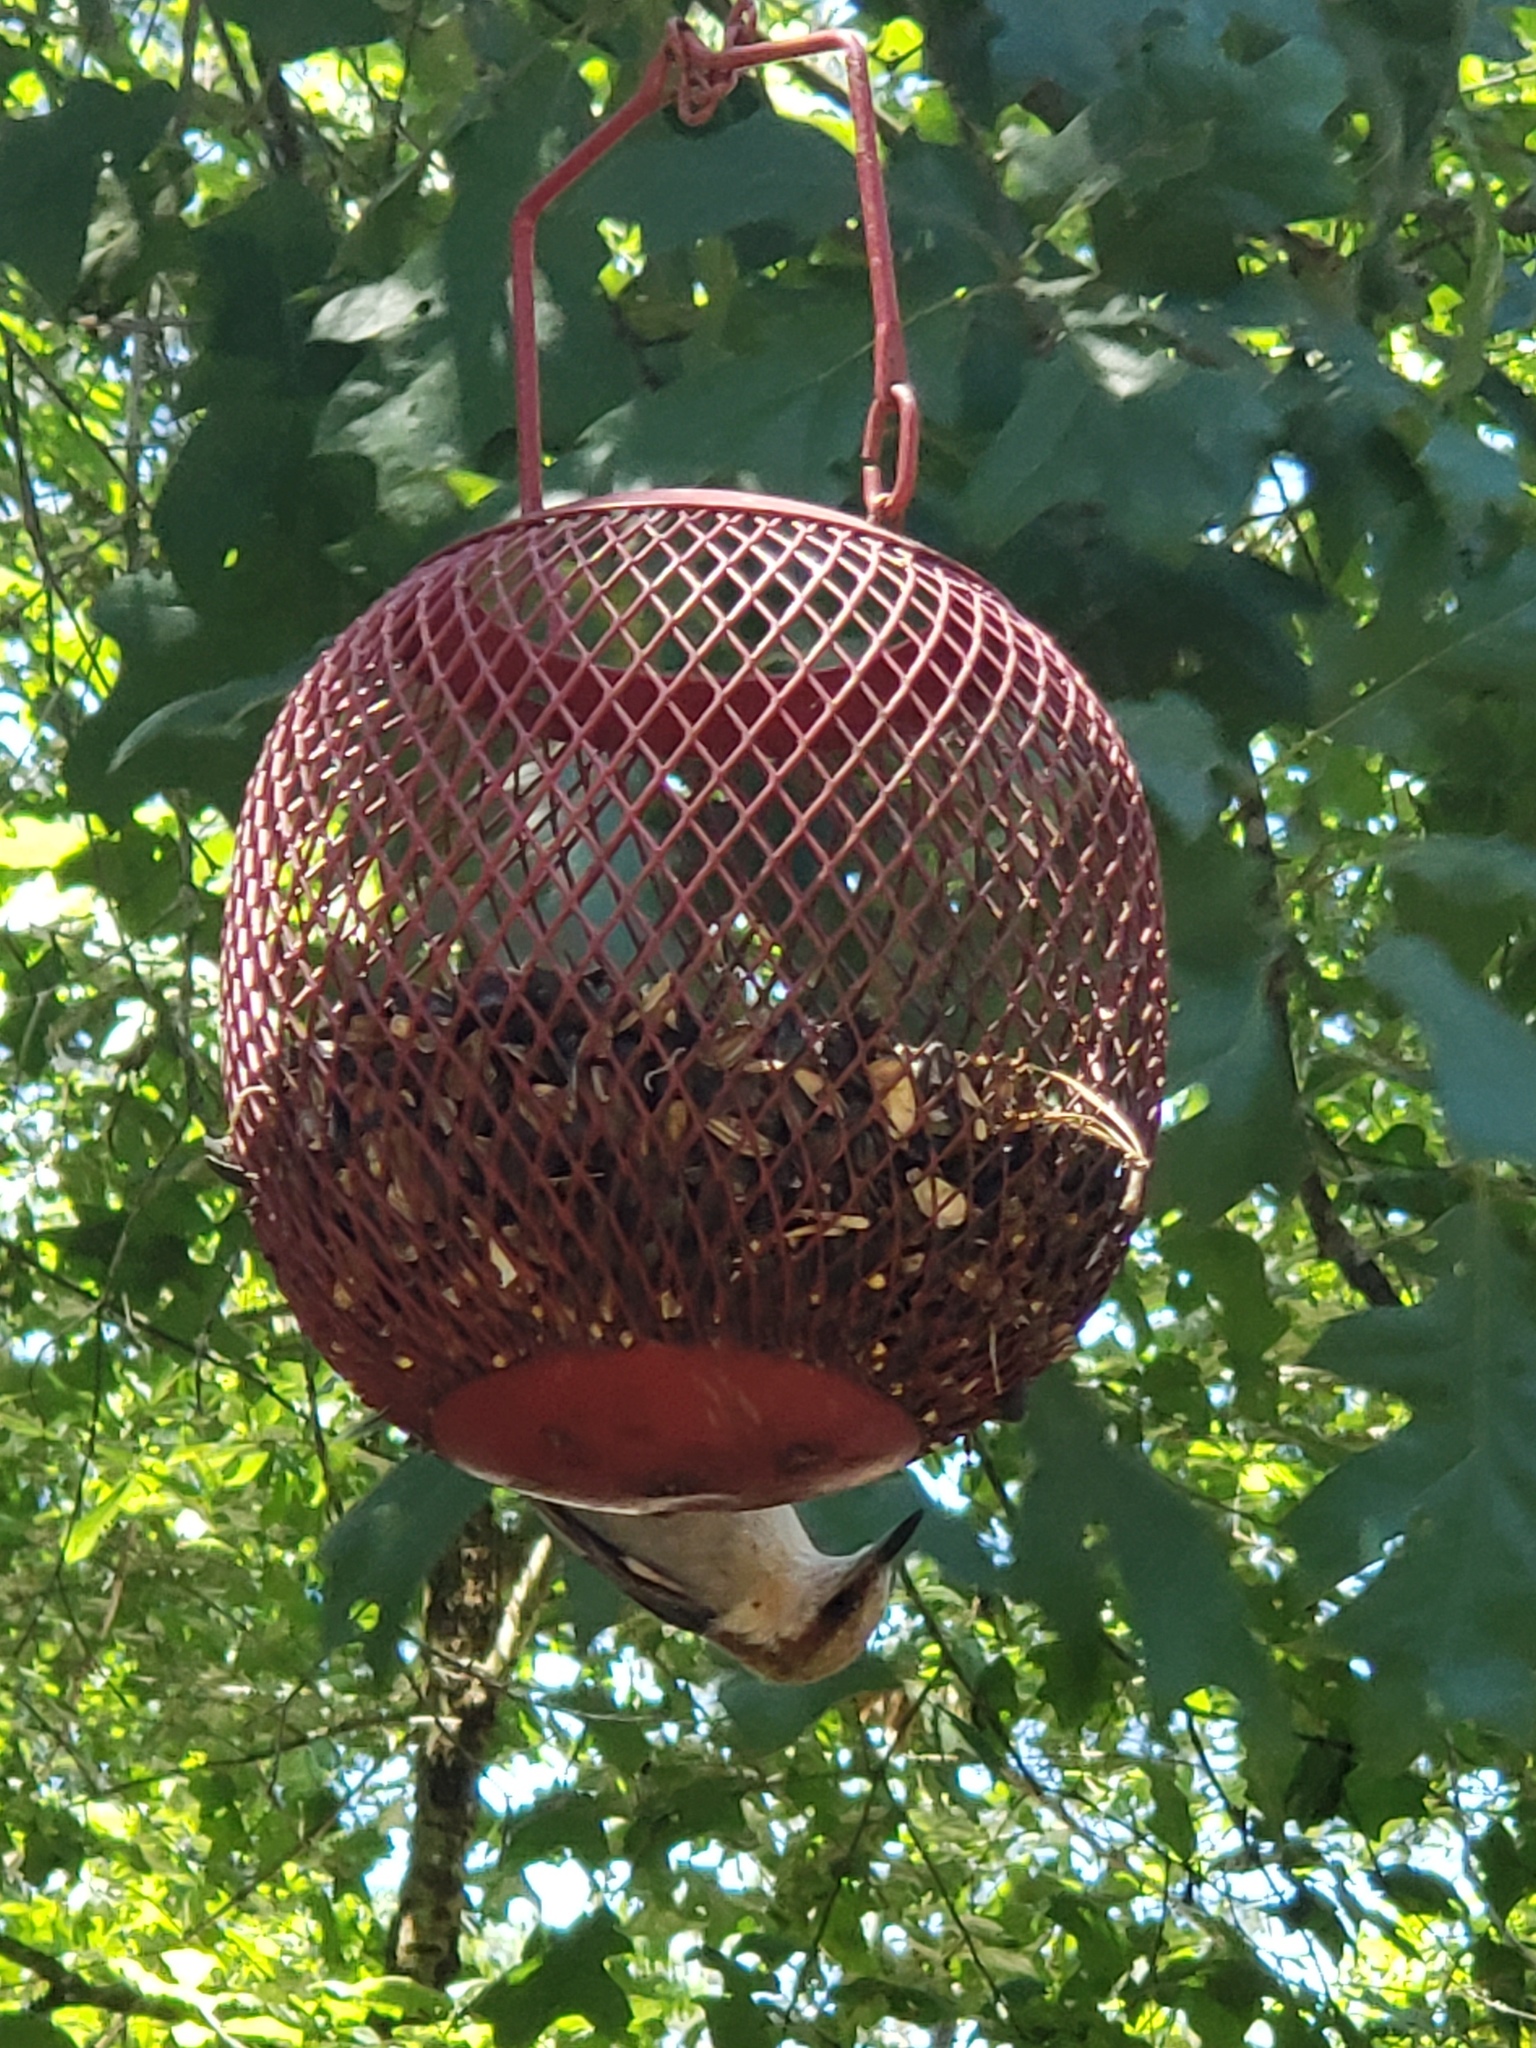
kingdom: Animalia
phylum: Chordata
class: Aves
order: Passeriformes
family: Sittidae
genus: Sitta
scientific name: Sitta pusilla
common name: Brown-headed nuthatch
